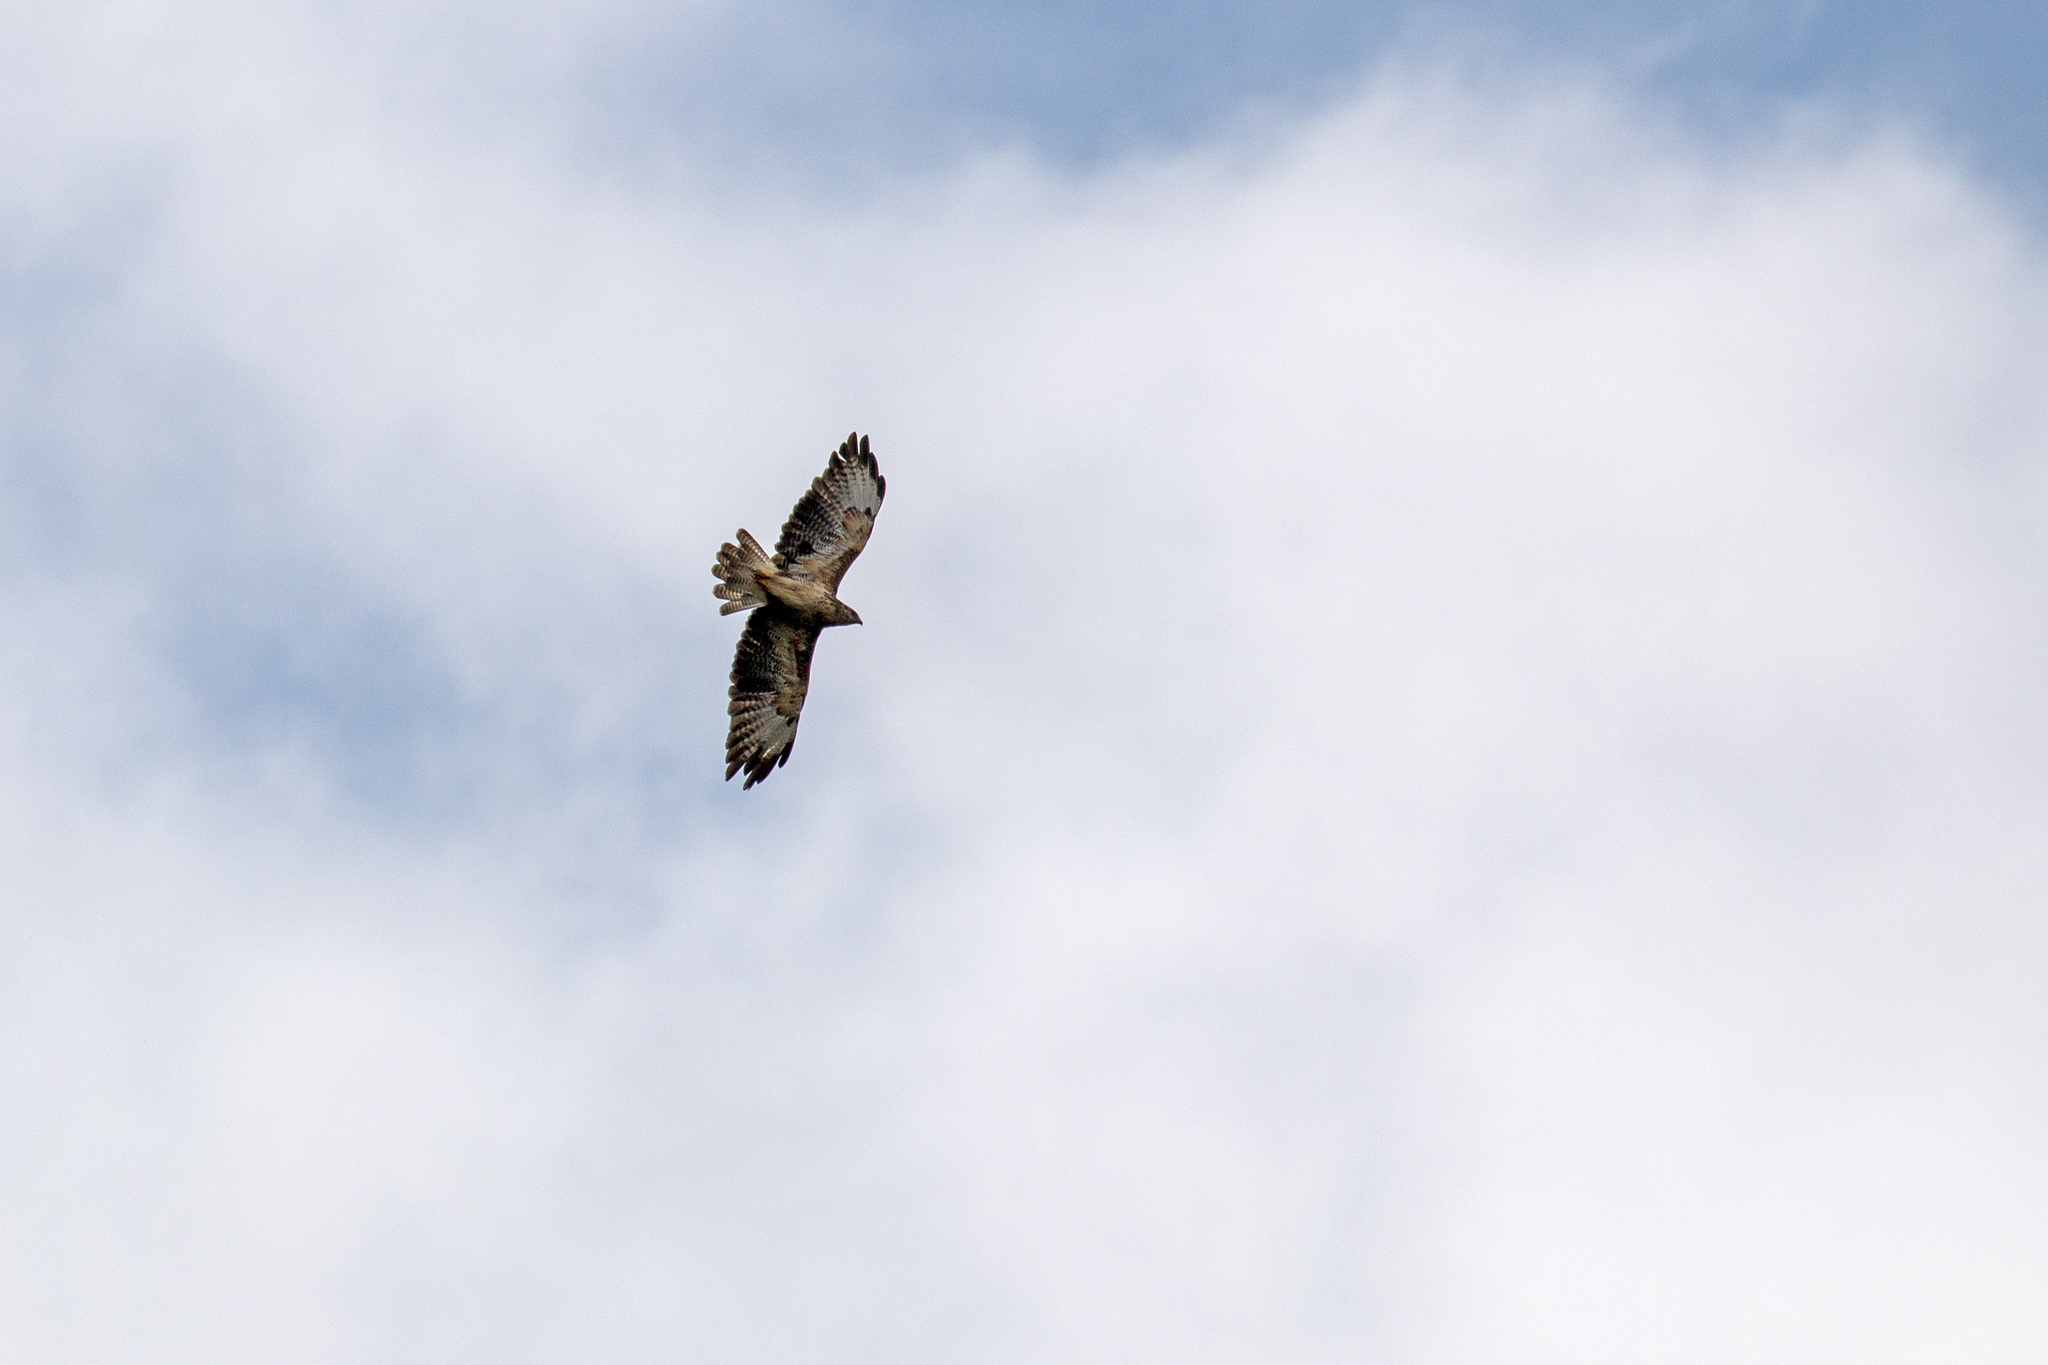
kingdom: Animalia
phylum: Chordata
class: Aves
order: Accipitriformes
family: Accipitridae
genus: Buteo
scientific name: Buteo buteo
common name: Common buzzard
